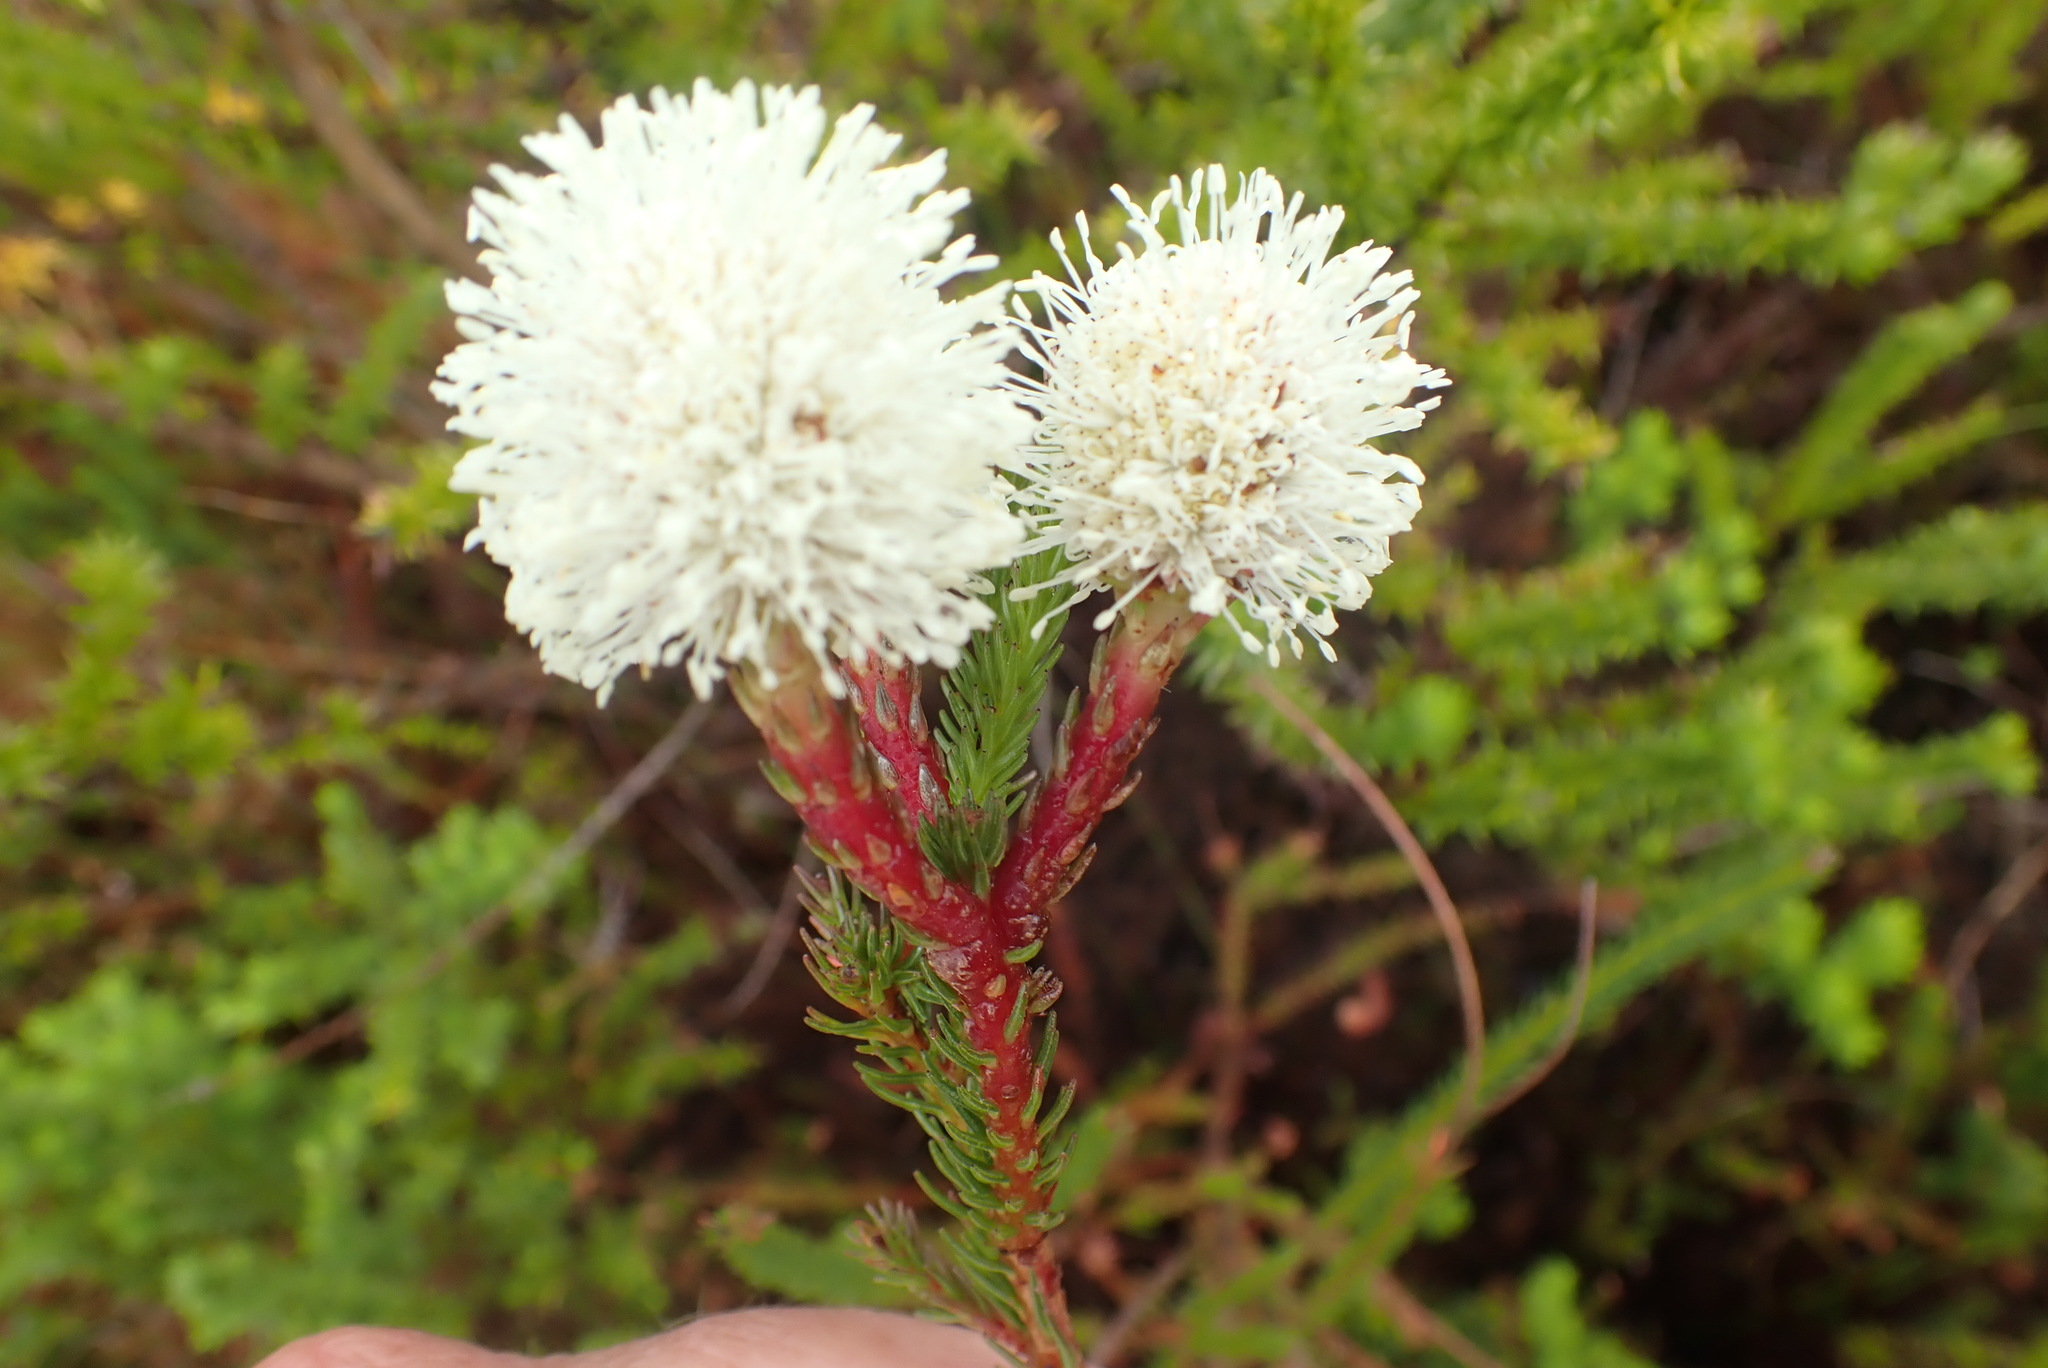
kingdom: Plantae
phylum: Tracheophyta
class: Magnoliopsida
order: Bruniales
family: Bruniaceae
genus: Berzelia
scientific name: Berzelia intermedia
